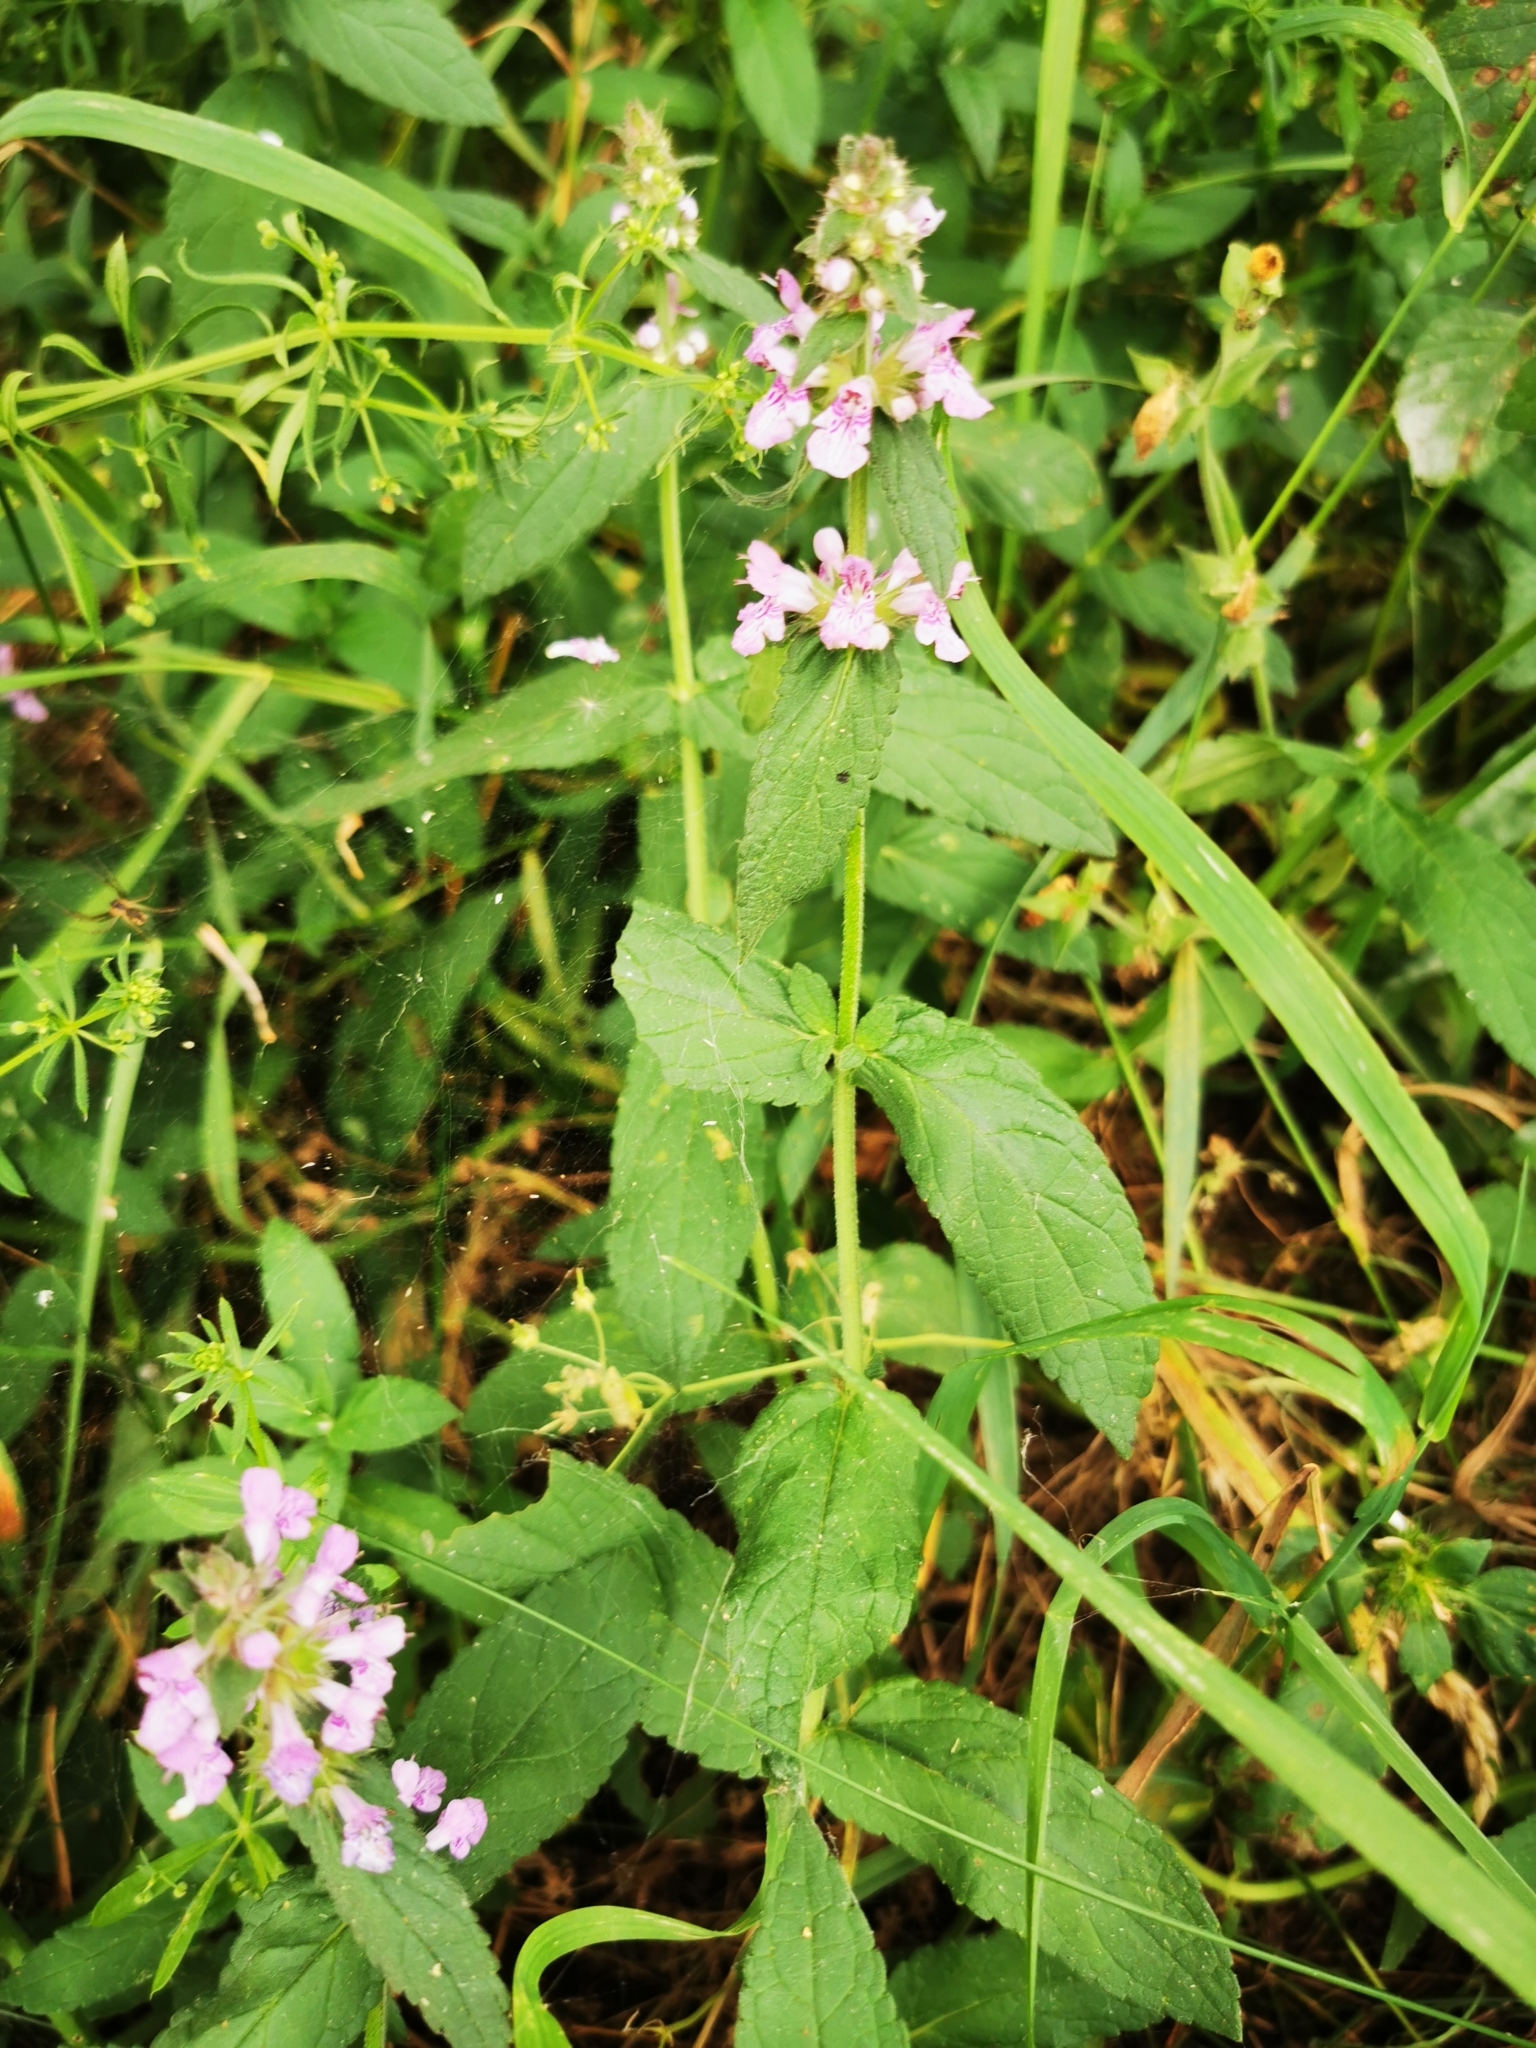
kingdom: Plantae
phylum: Tracheophyta
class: Magnoliopsida
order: Lamiales
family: Lamiaceae
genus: Stachys
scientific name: Stachys palustris
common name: Marsh woundwort
